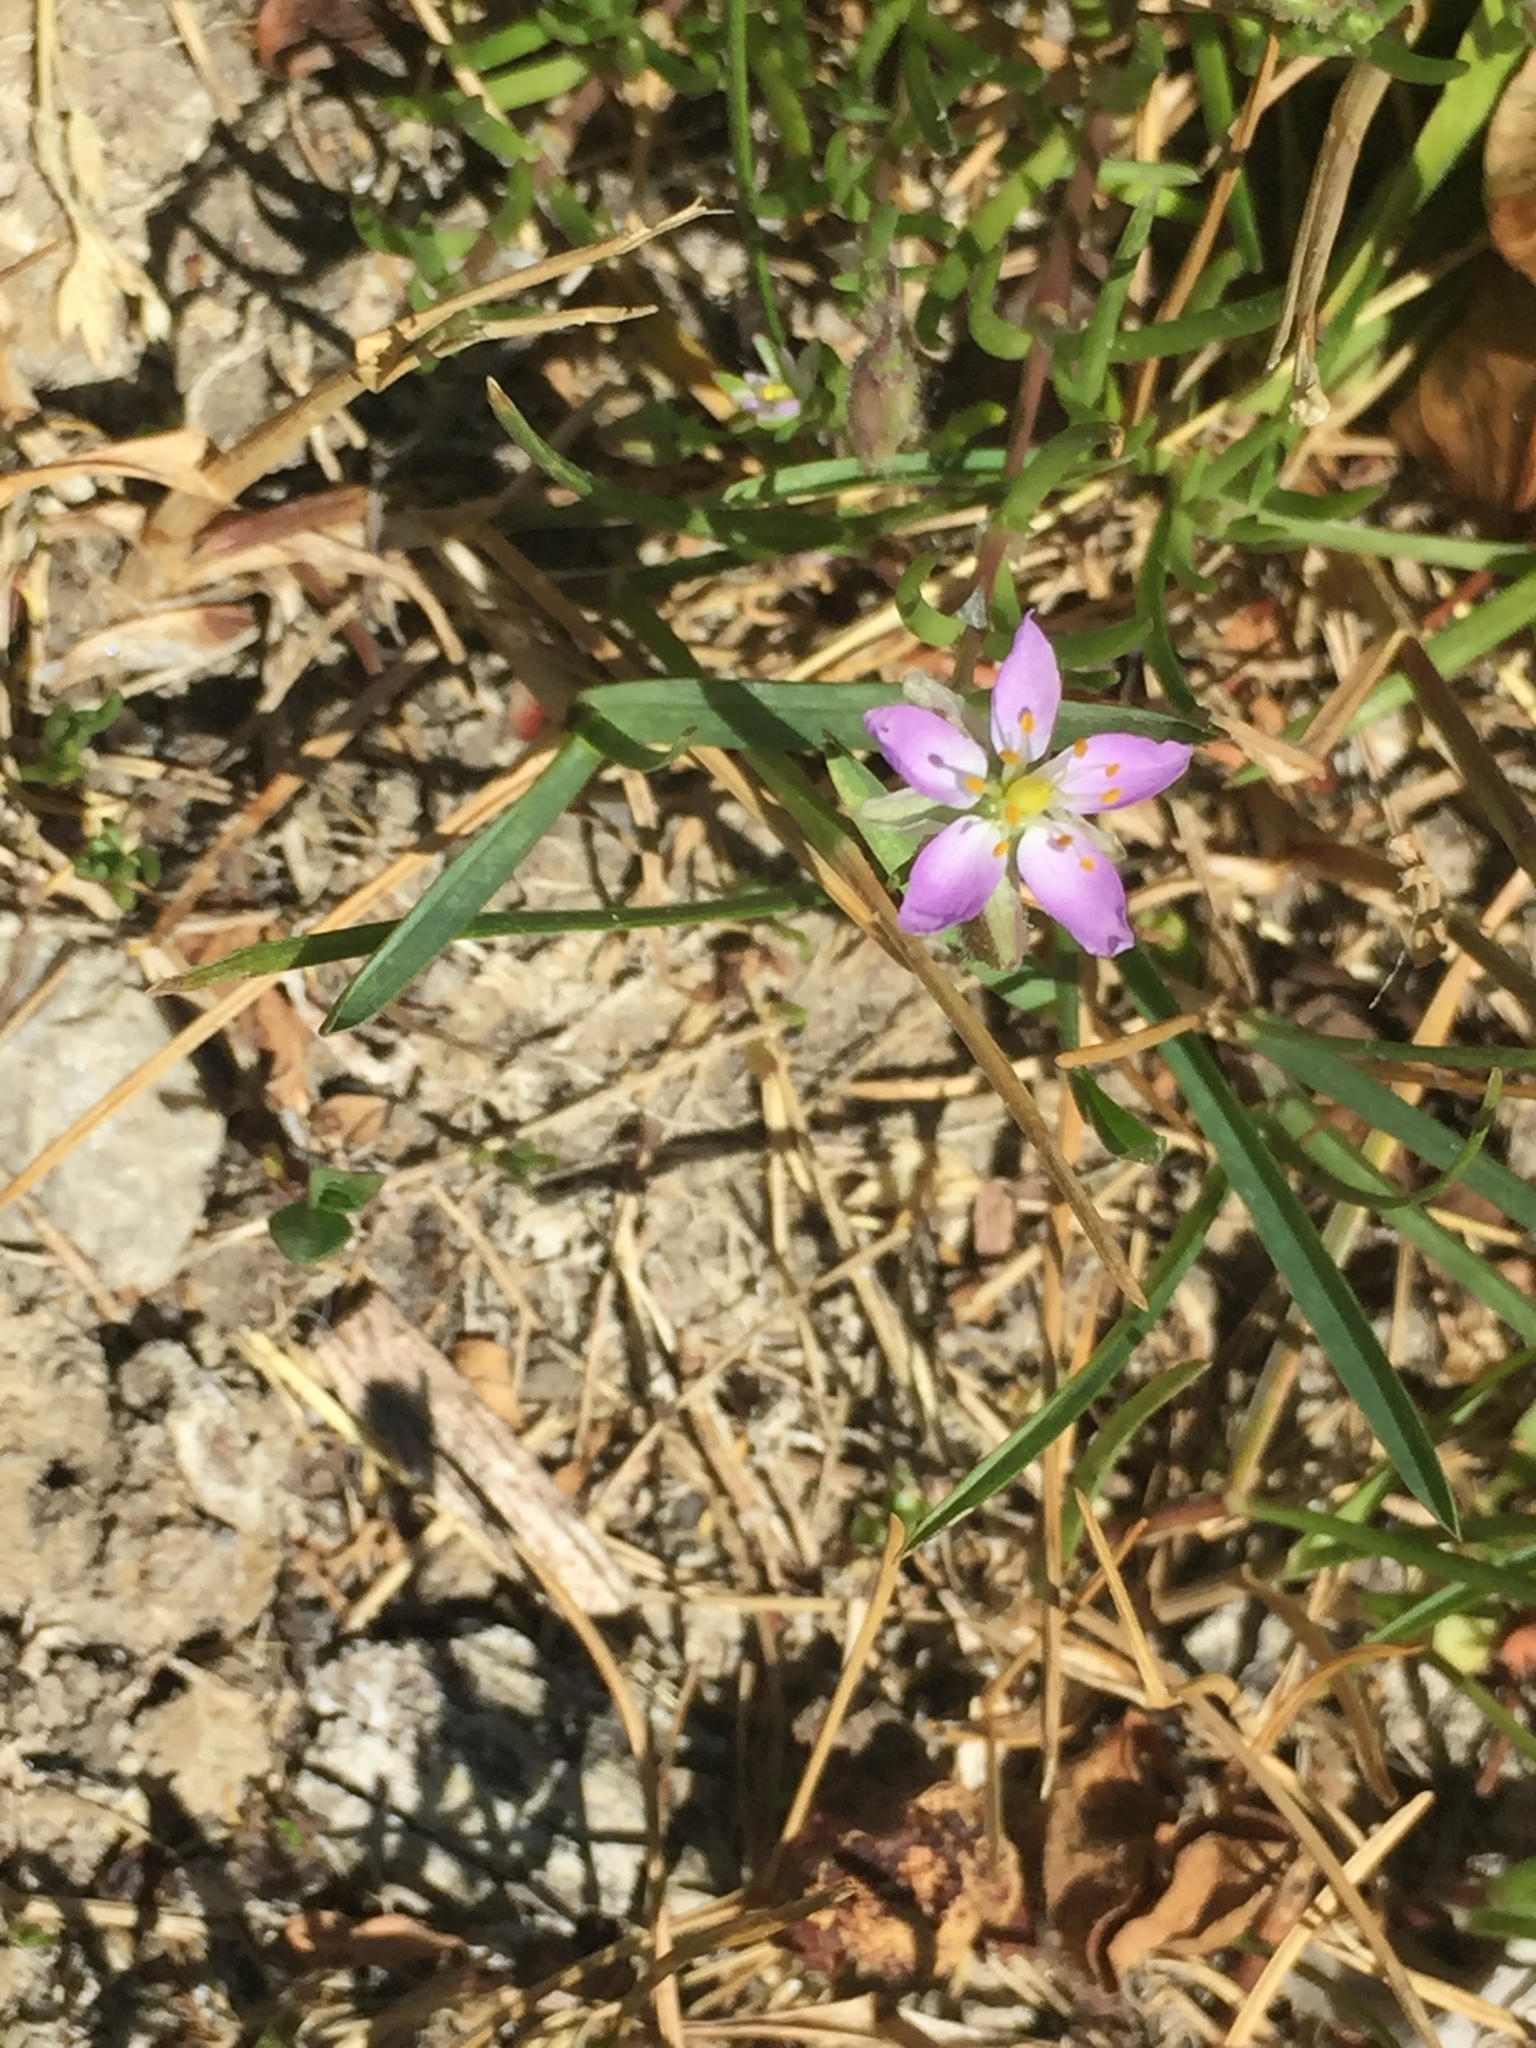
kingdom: Plantae
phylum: Tracheophyta
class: Magnoliopsida
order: Caryophyllales
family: Caryophyllaceae
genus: Spergularia
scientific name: Spergularia rubra
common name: Red sand-spurrey
